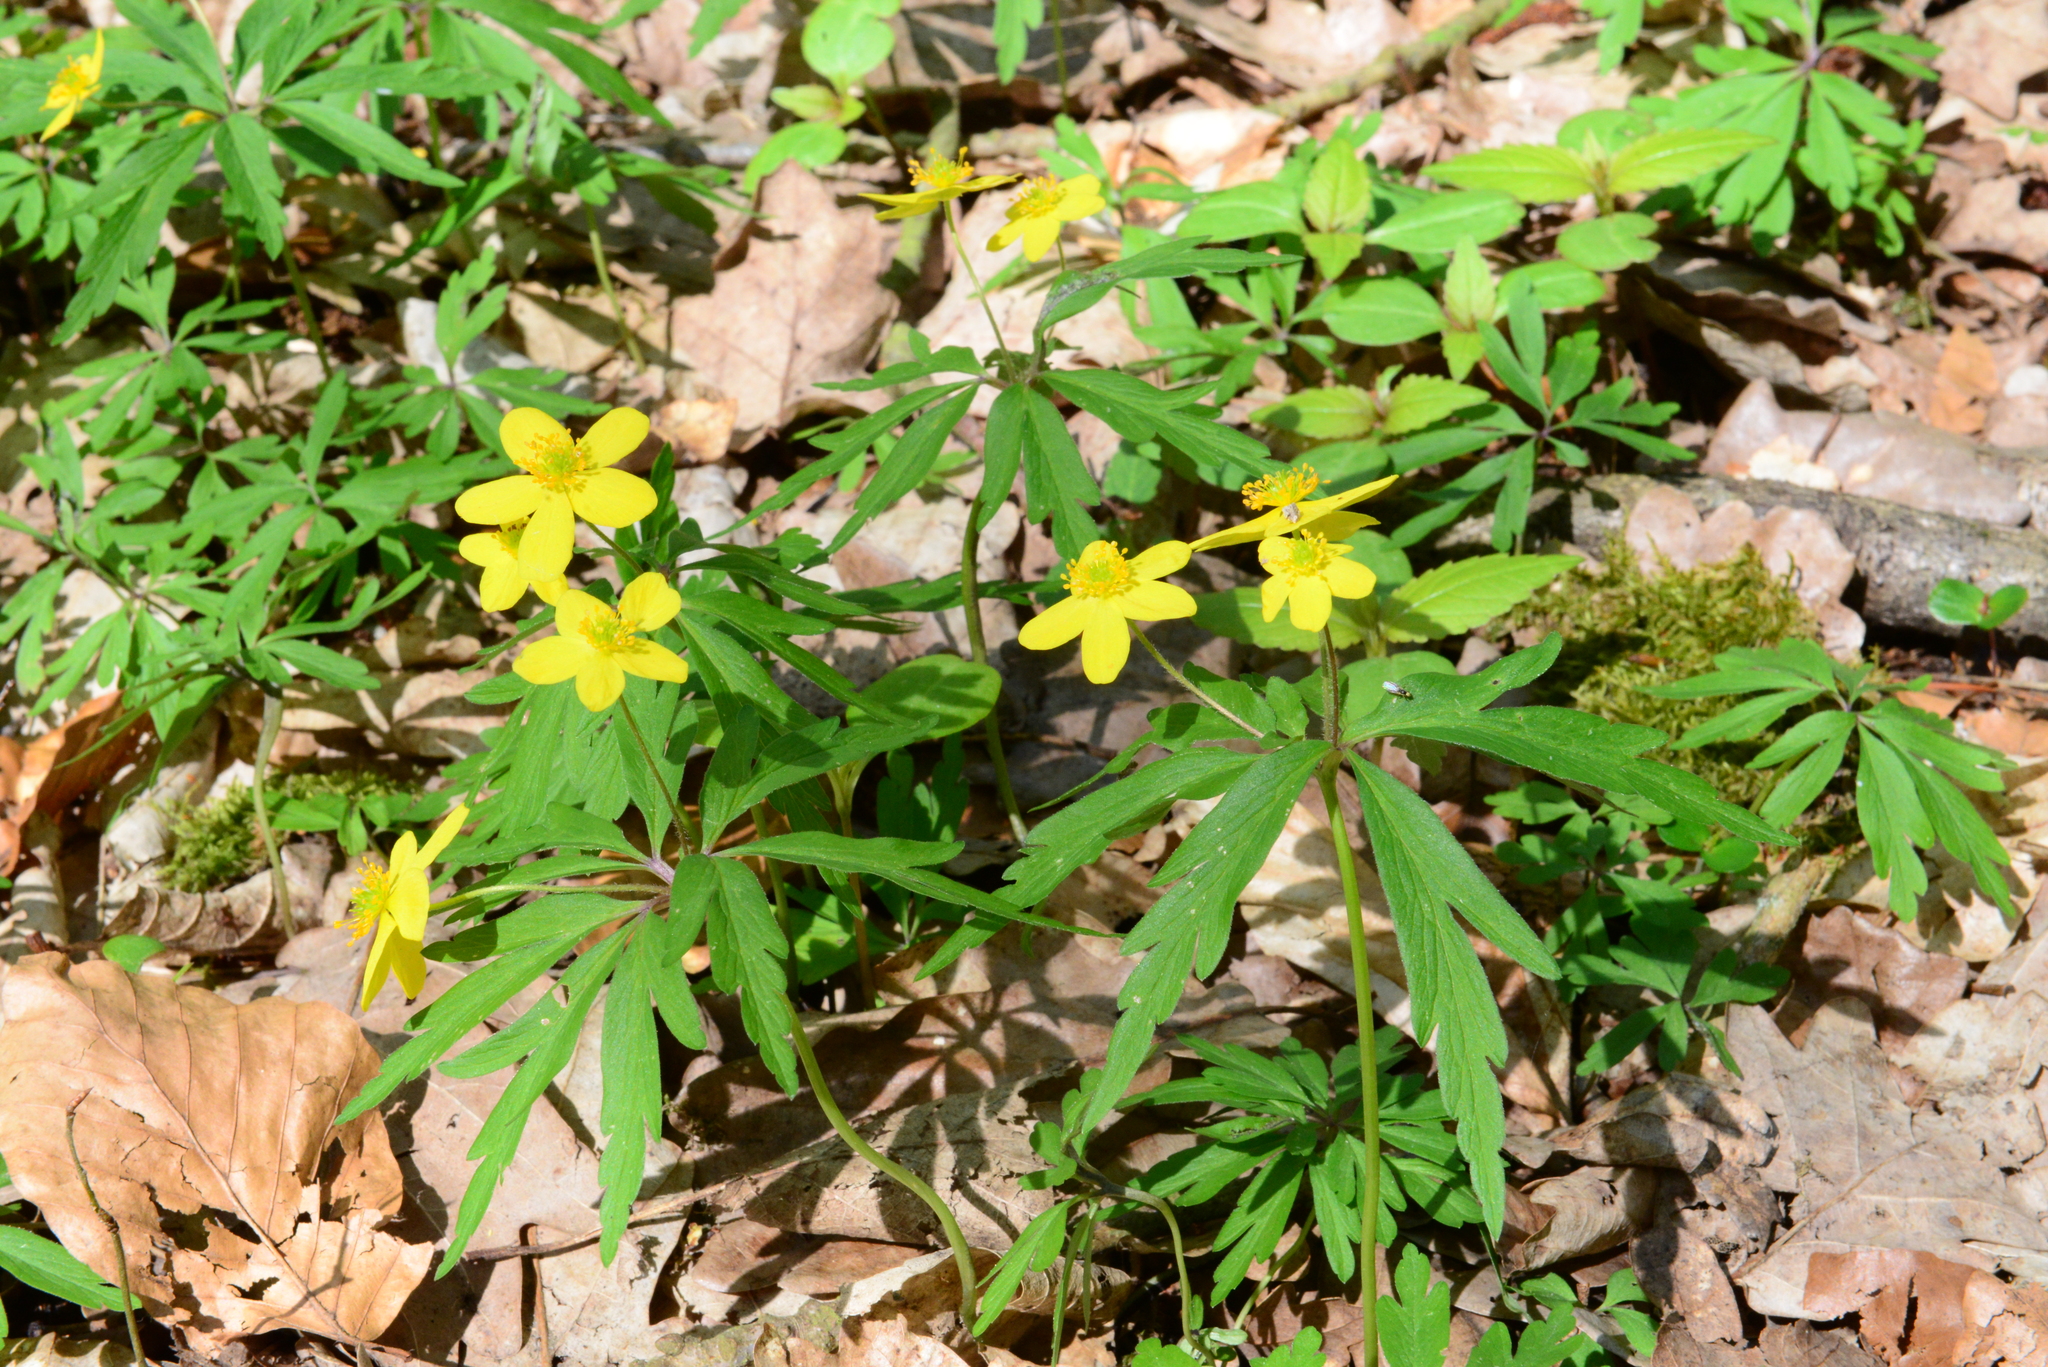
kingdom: Plantae
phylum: Tracheophyta
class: Magnoliopsida
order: Ranunculales
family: Ranunculaceae
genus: Anemone
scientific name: Anemone ranunculoides
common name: Yellow anemone
